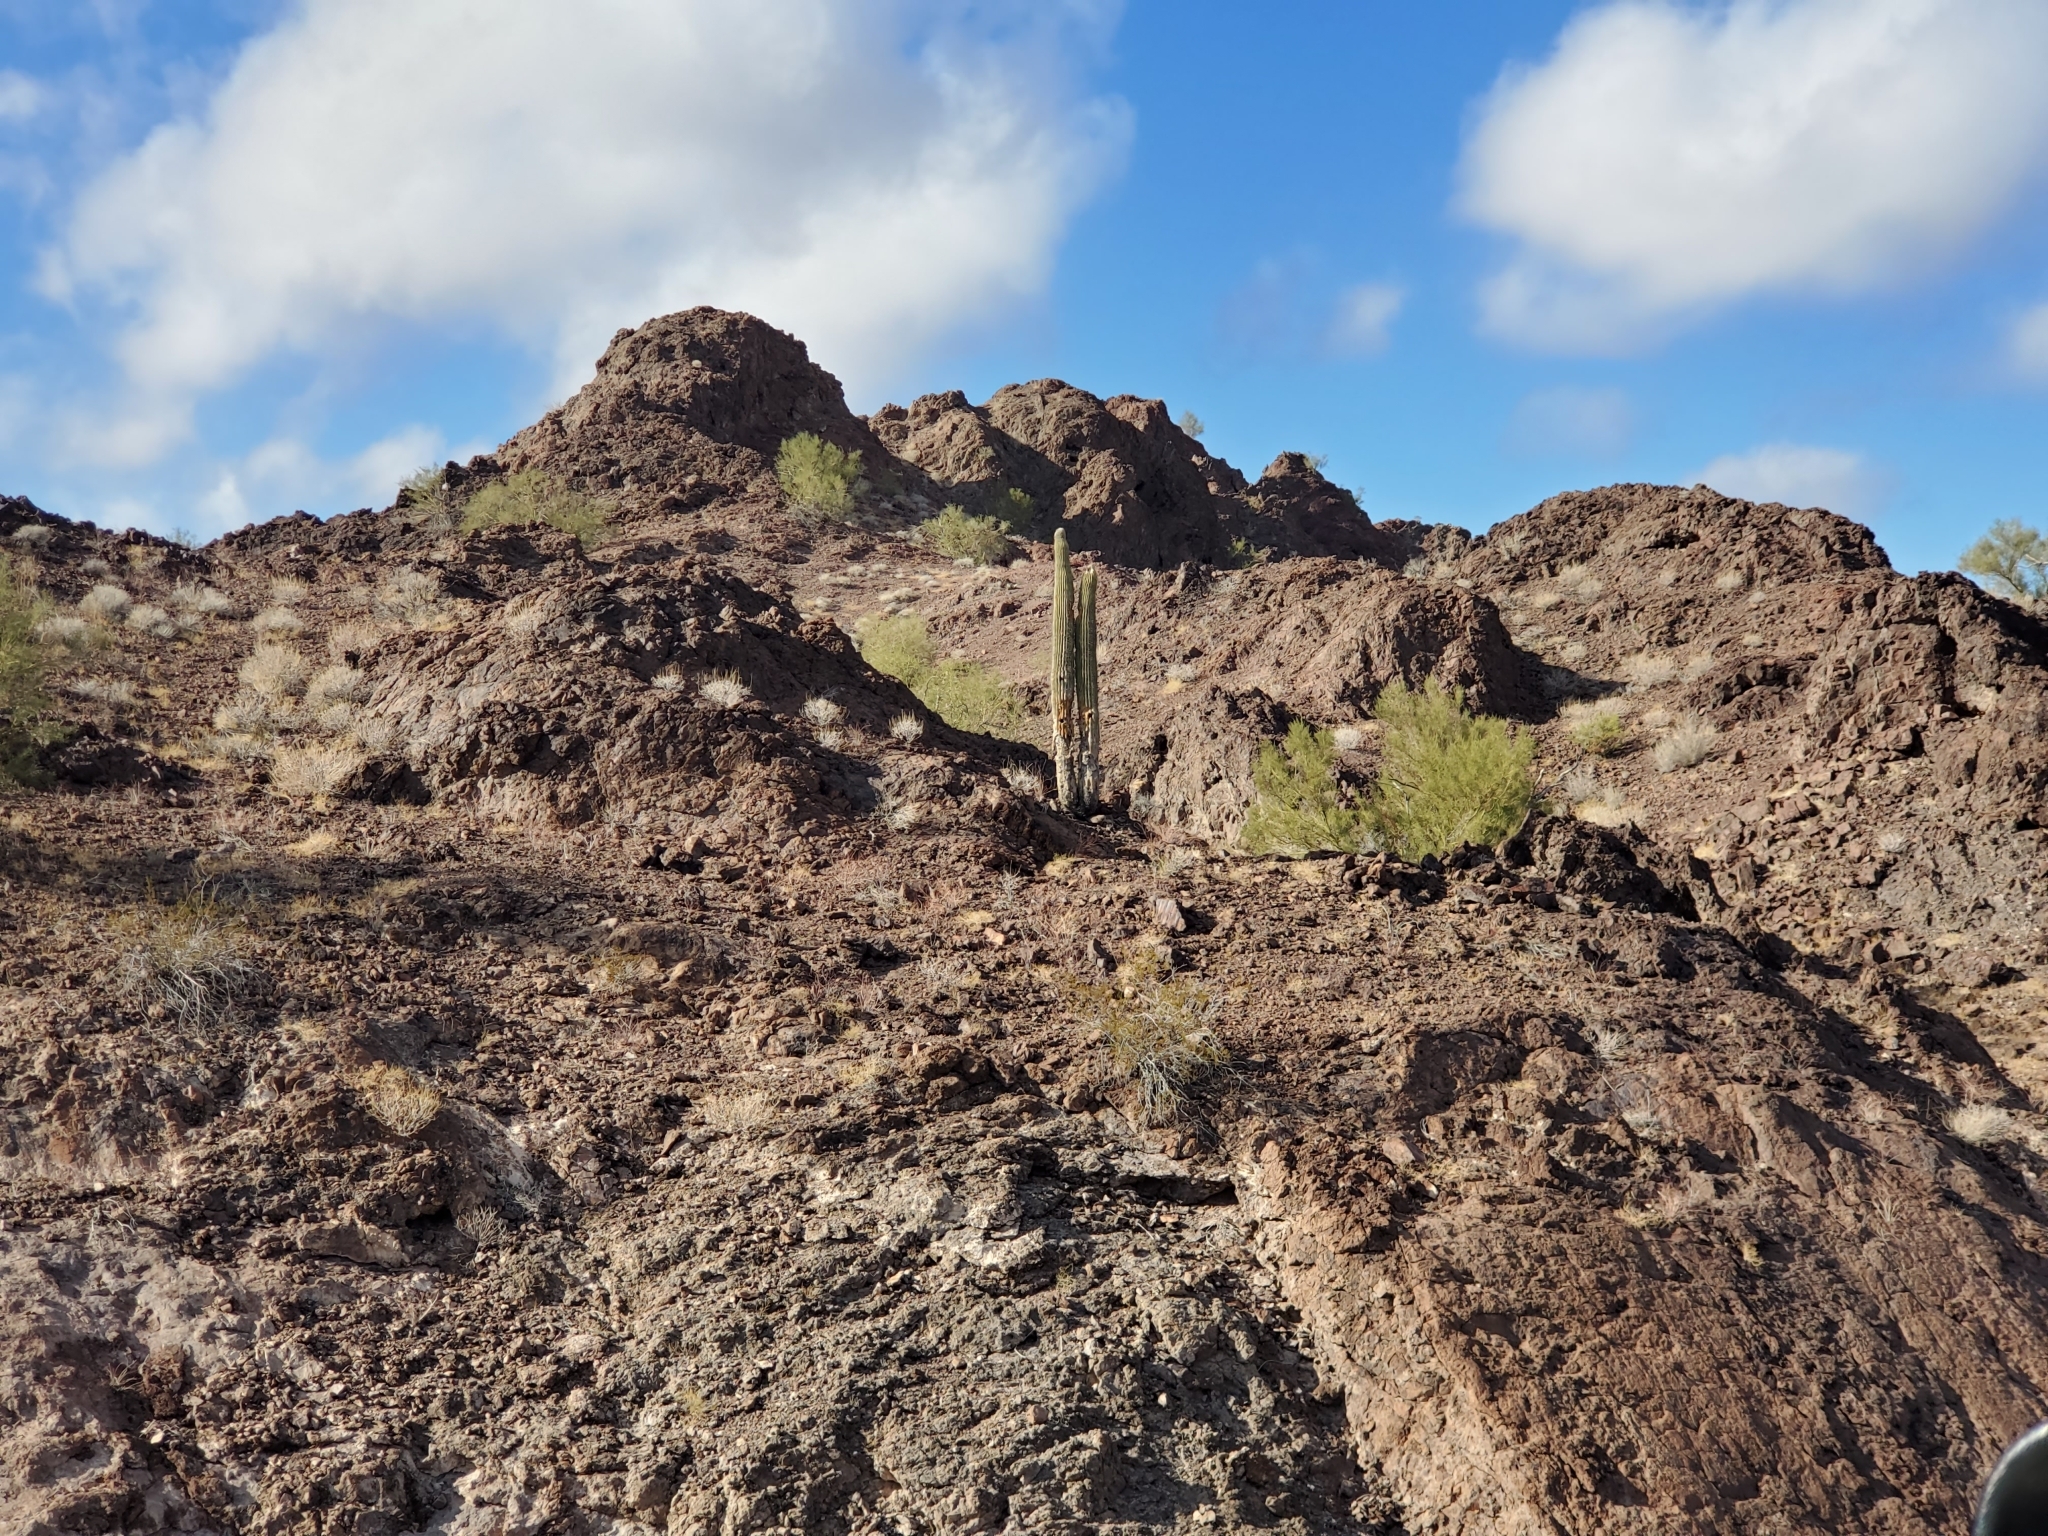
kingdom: Plantae
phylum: Tracheophyta
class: Magnoliopsida
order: Caryophyllales
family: Cactaceae
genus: Carnegiea
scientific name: Carnegiea gigantea
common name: Saguaro
